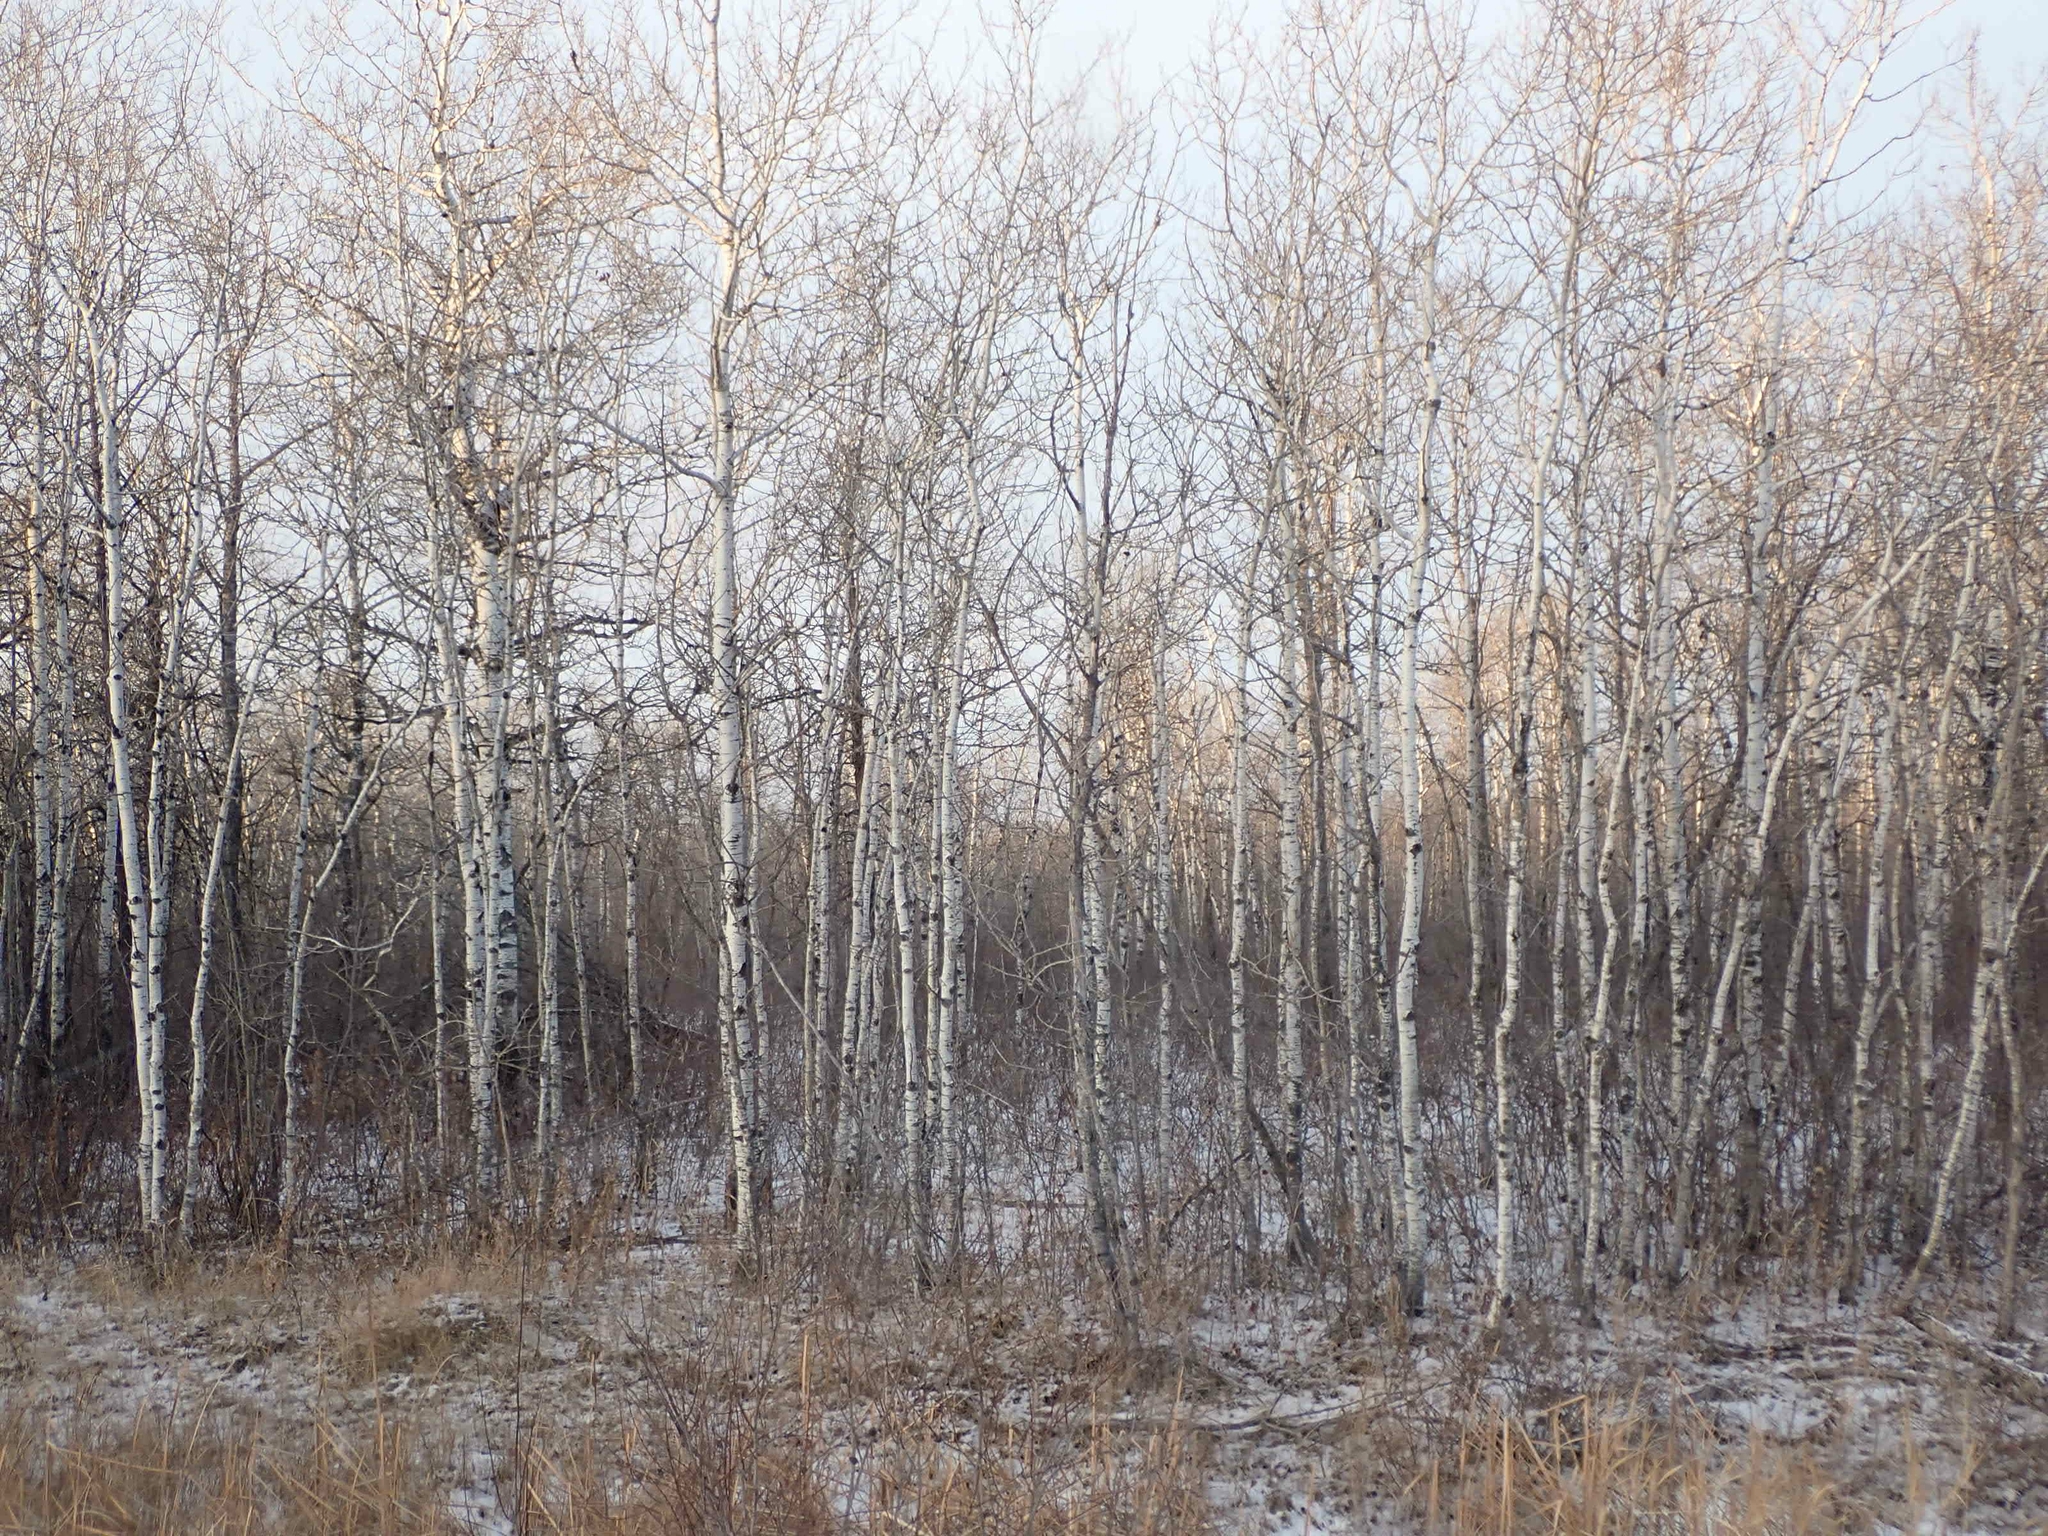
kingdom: Plantae
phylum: Tracheophyta
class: Magnoliopsida
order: Malpighiales
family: Salicaceae
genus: Populus
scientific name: Populus tremuloides
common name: Quaking aspen
